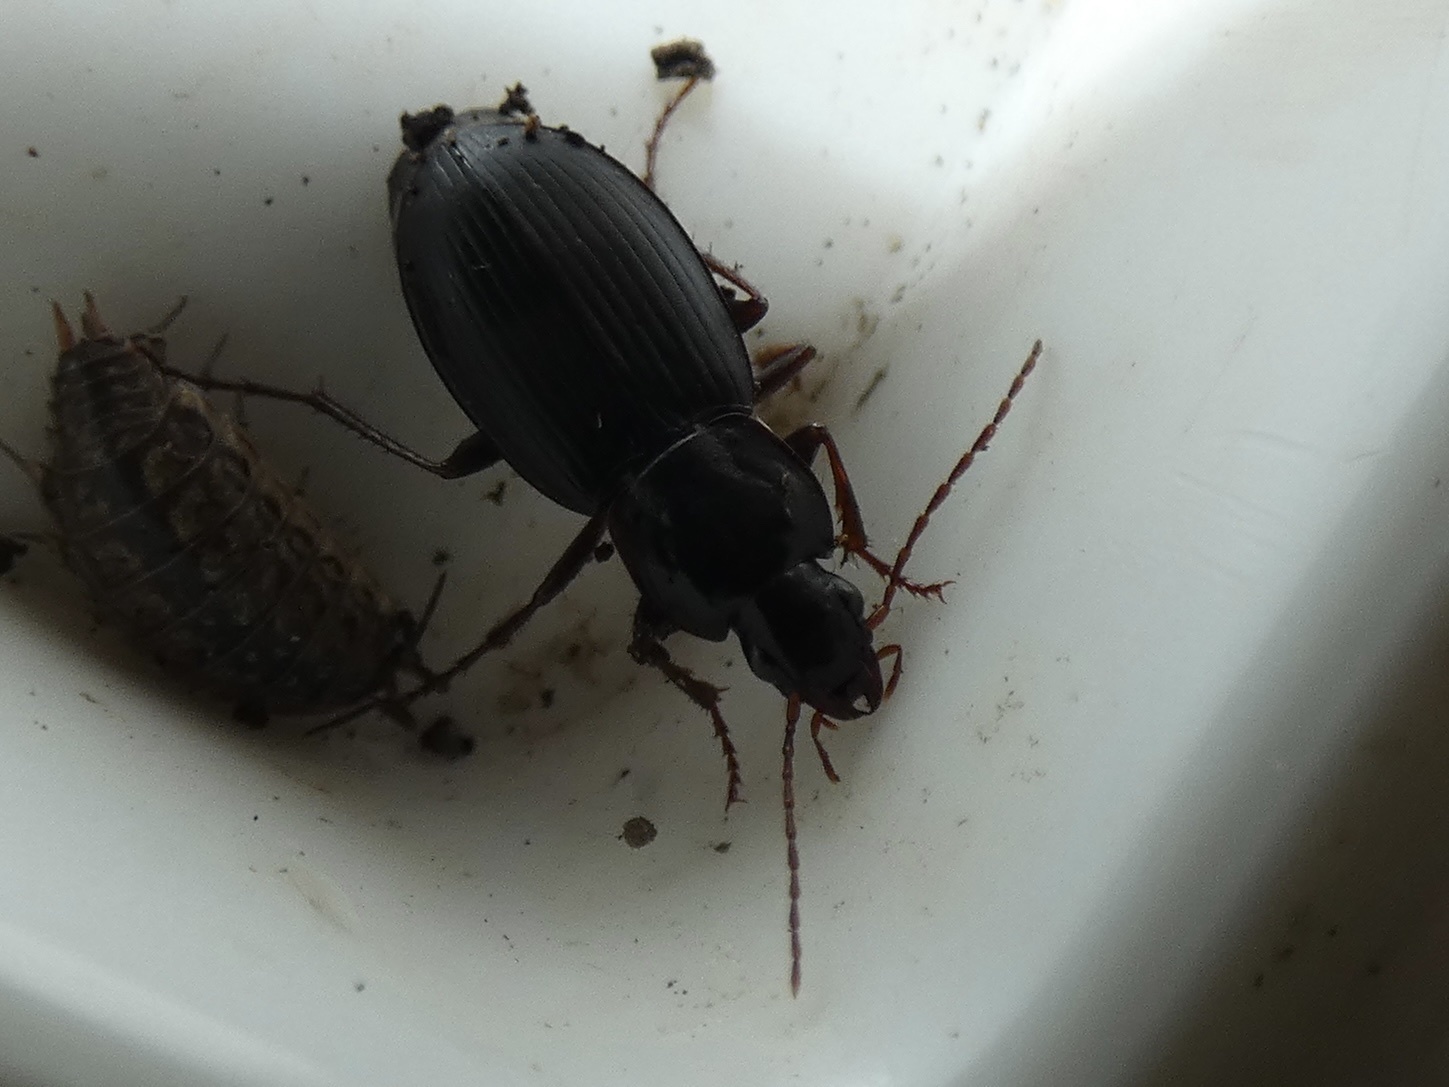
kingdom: Animalia
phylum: Arthropoda
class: Insecta
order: Coleoptera
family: Carabidae
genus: Calathus
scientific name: Calathus rotundicollis
